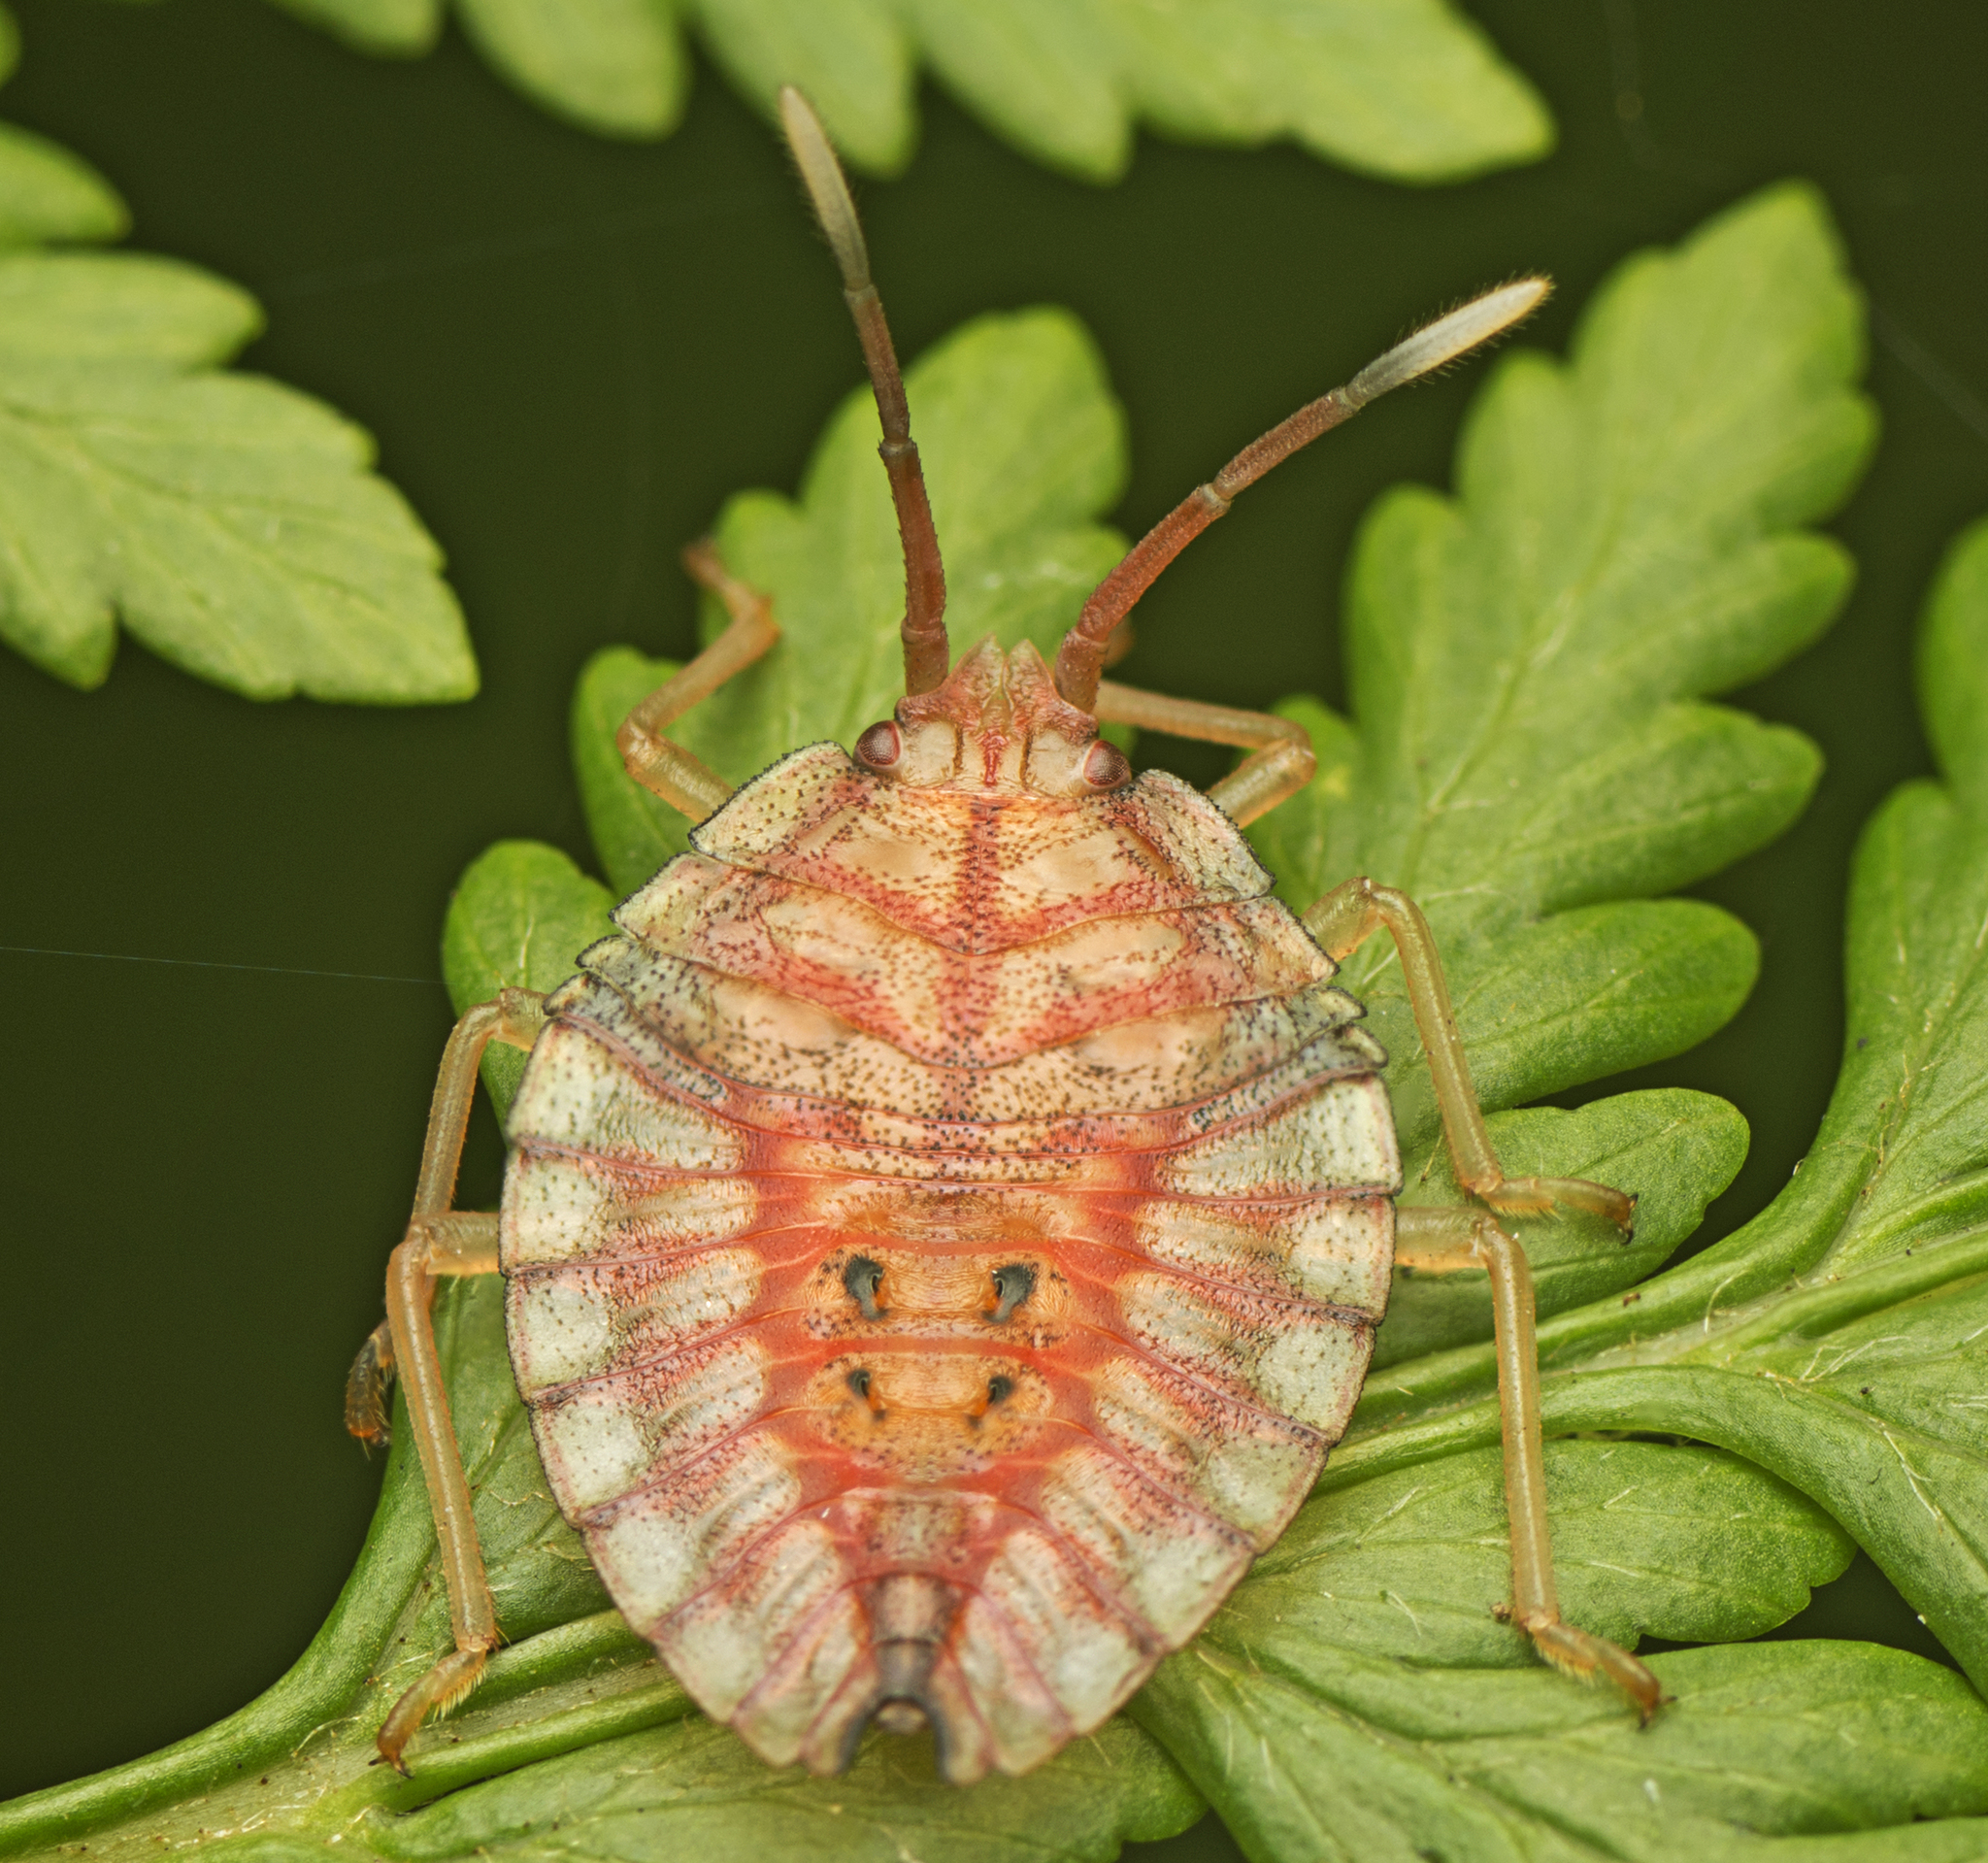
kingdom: Animalia
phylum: Arthropoda
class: Insecta
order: Hemiptera
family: Tessaratomidae
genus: Stilida
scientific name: Stilida indecora
